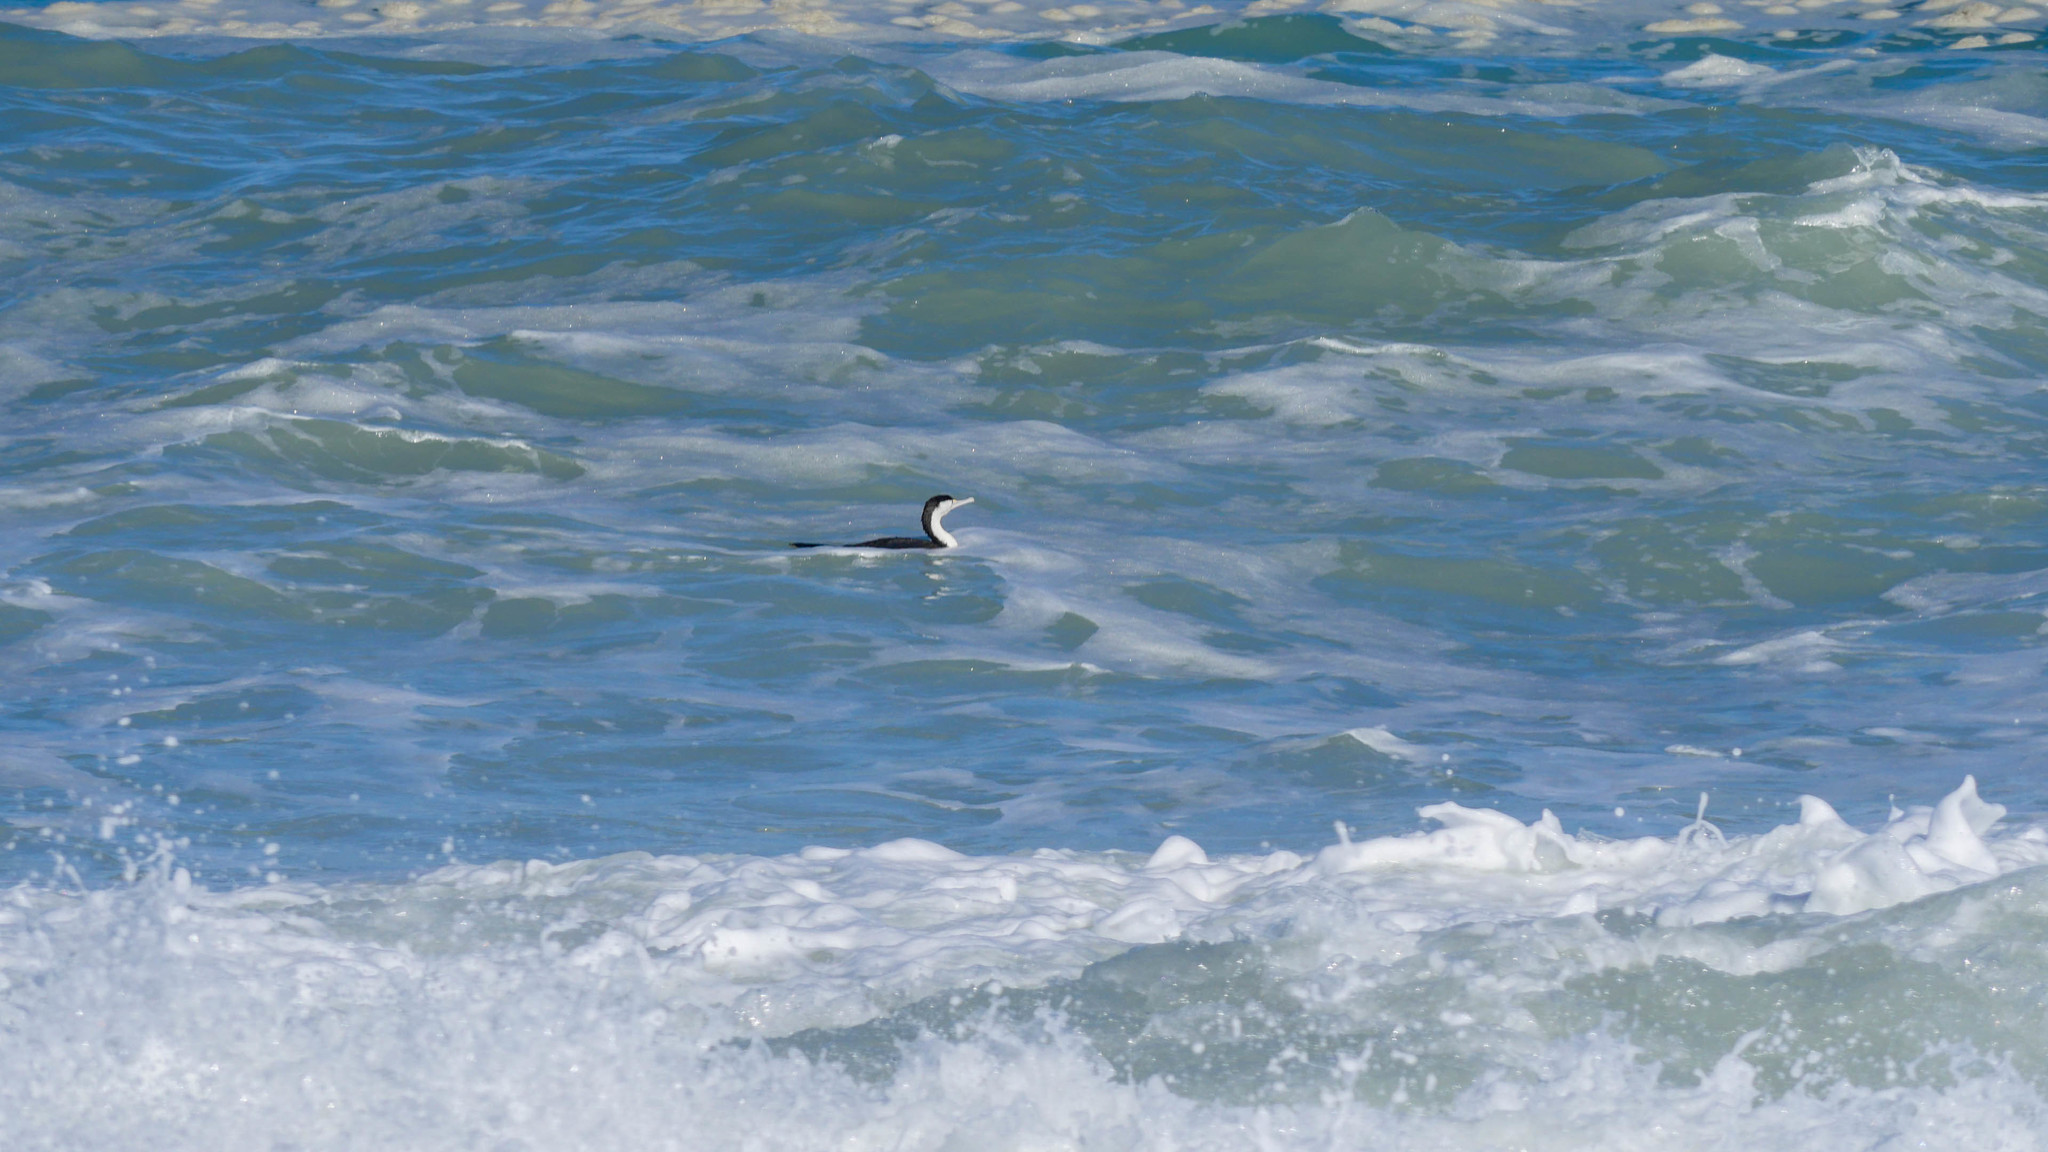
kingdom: Animalia
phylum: Chordata
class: Aves
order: Suliformes
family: Phalacrocoracidae
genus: Phalacrocorax
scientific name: Phalacrocorax varius
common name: Pied cormorant
